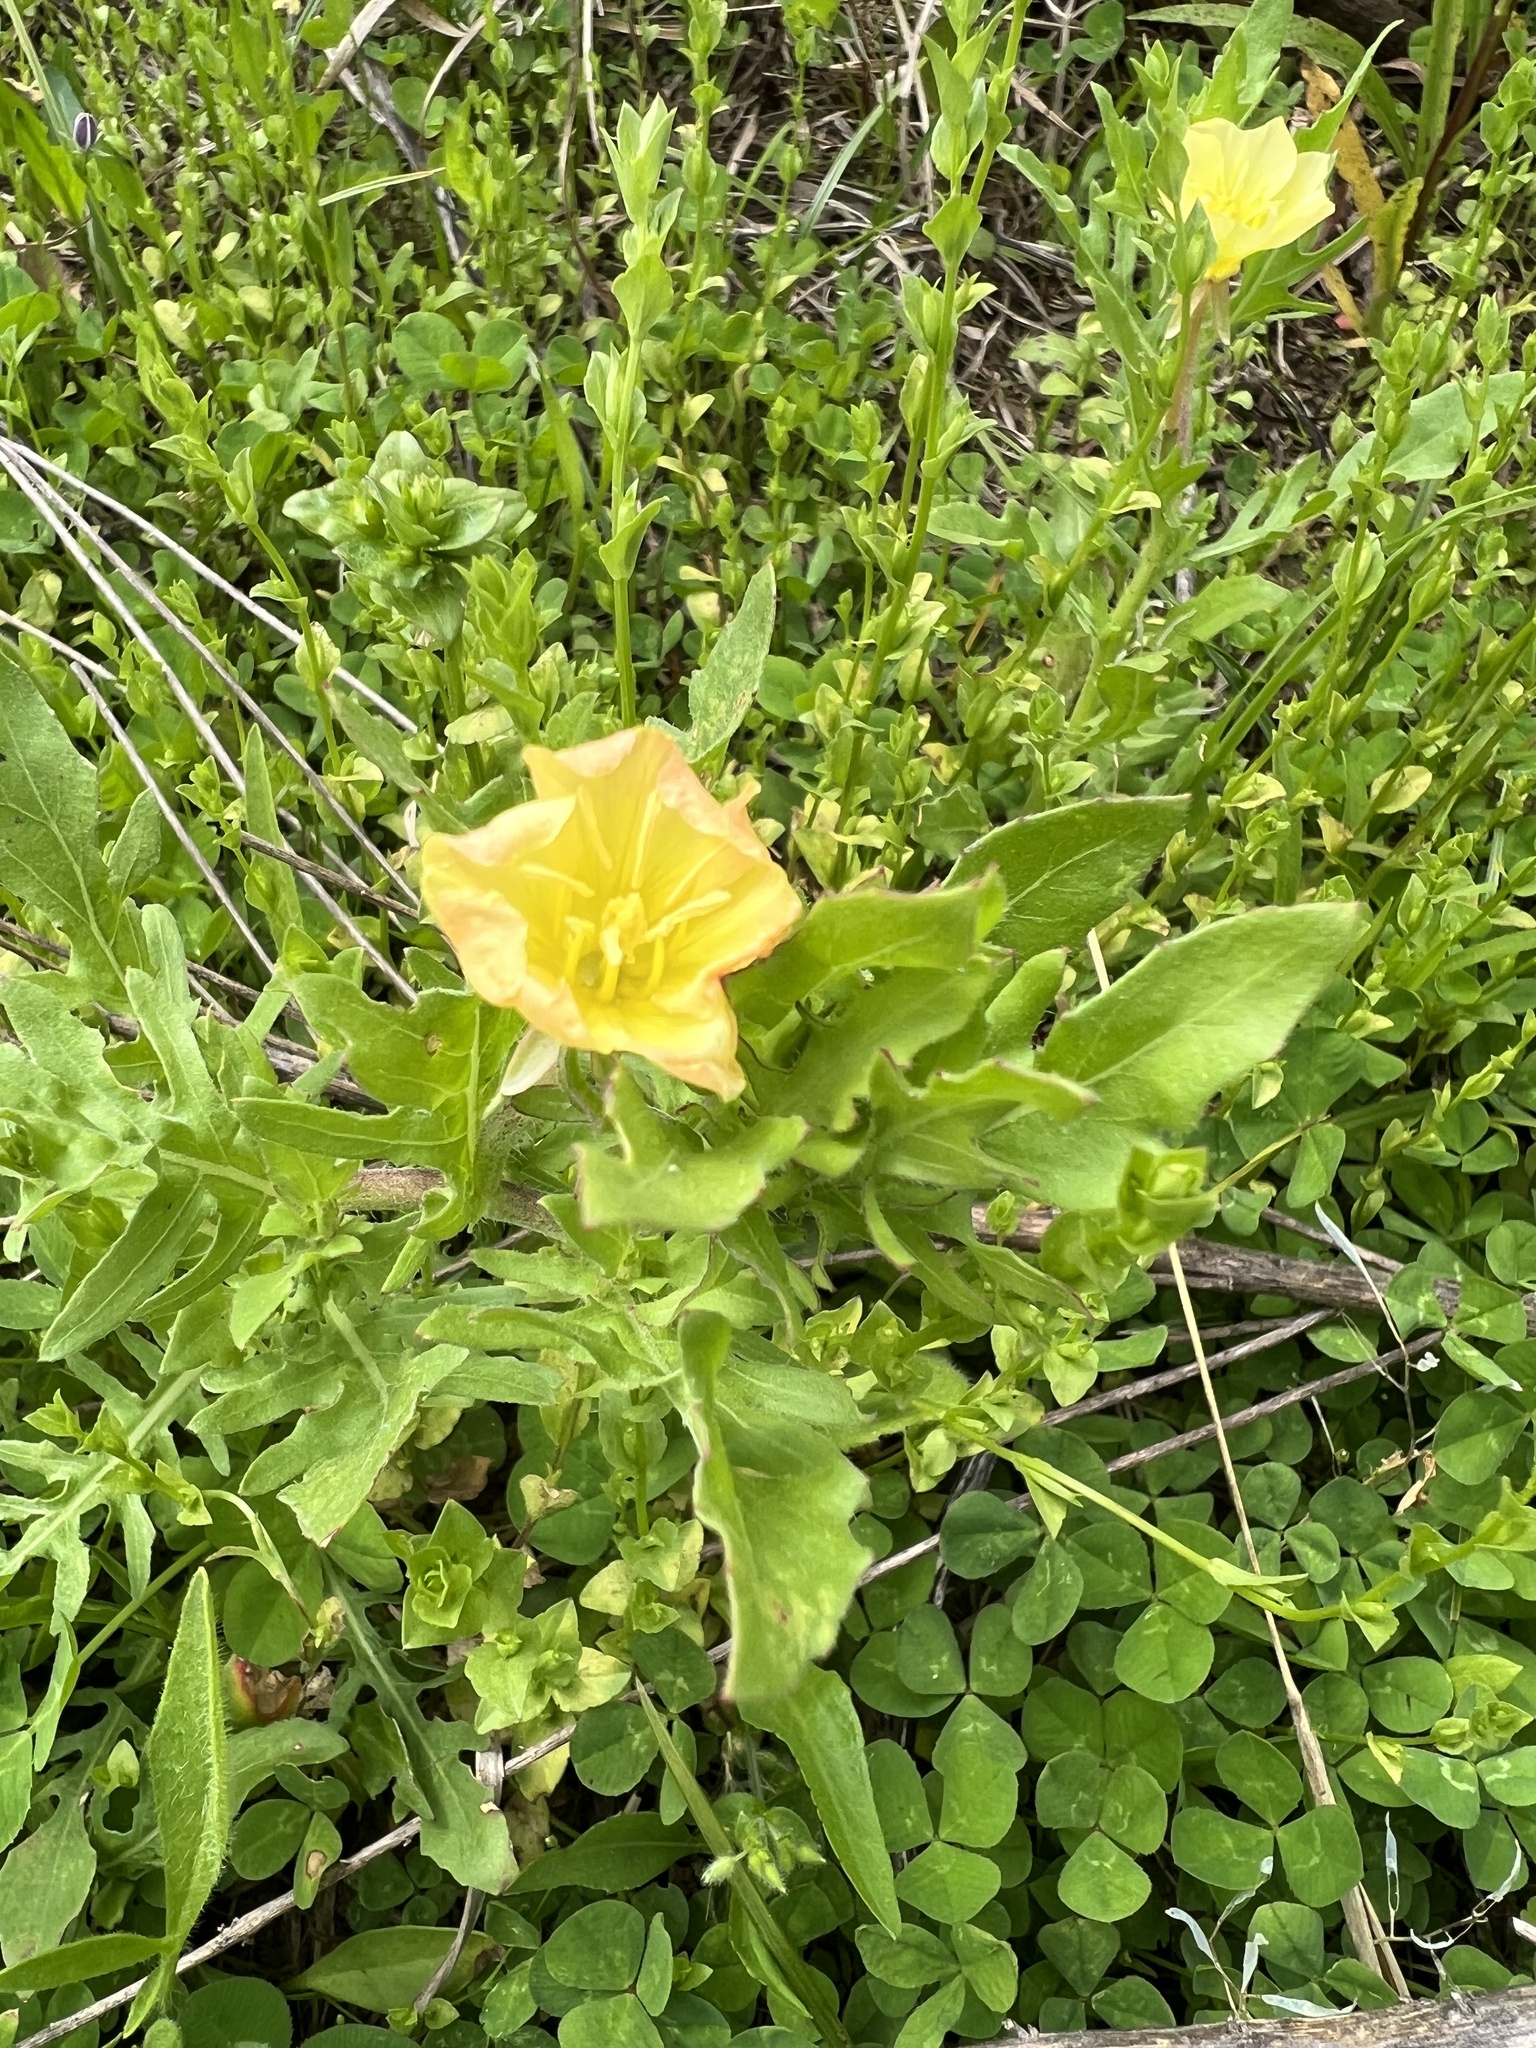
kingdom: Plantae
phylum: Tracheophyta
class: Magnoliopsida
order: Myrtales
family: Onagraceae
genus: Oenothera
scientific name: Oenothera laciniata
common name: Cut-leaved evening-primrose
